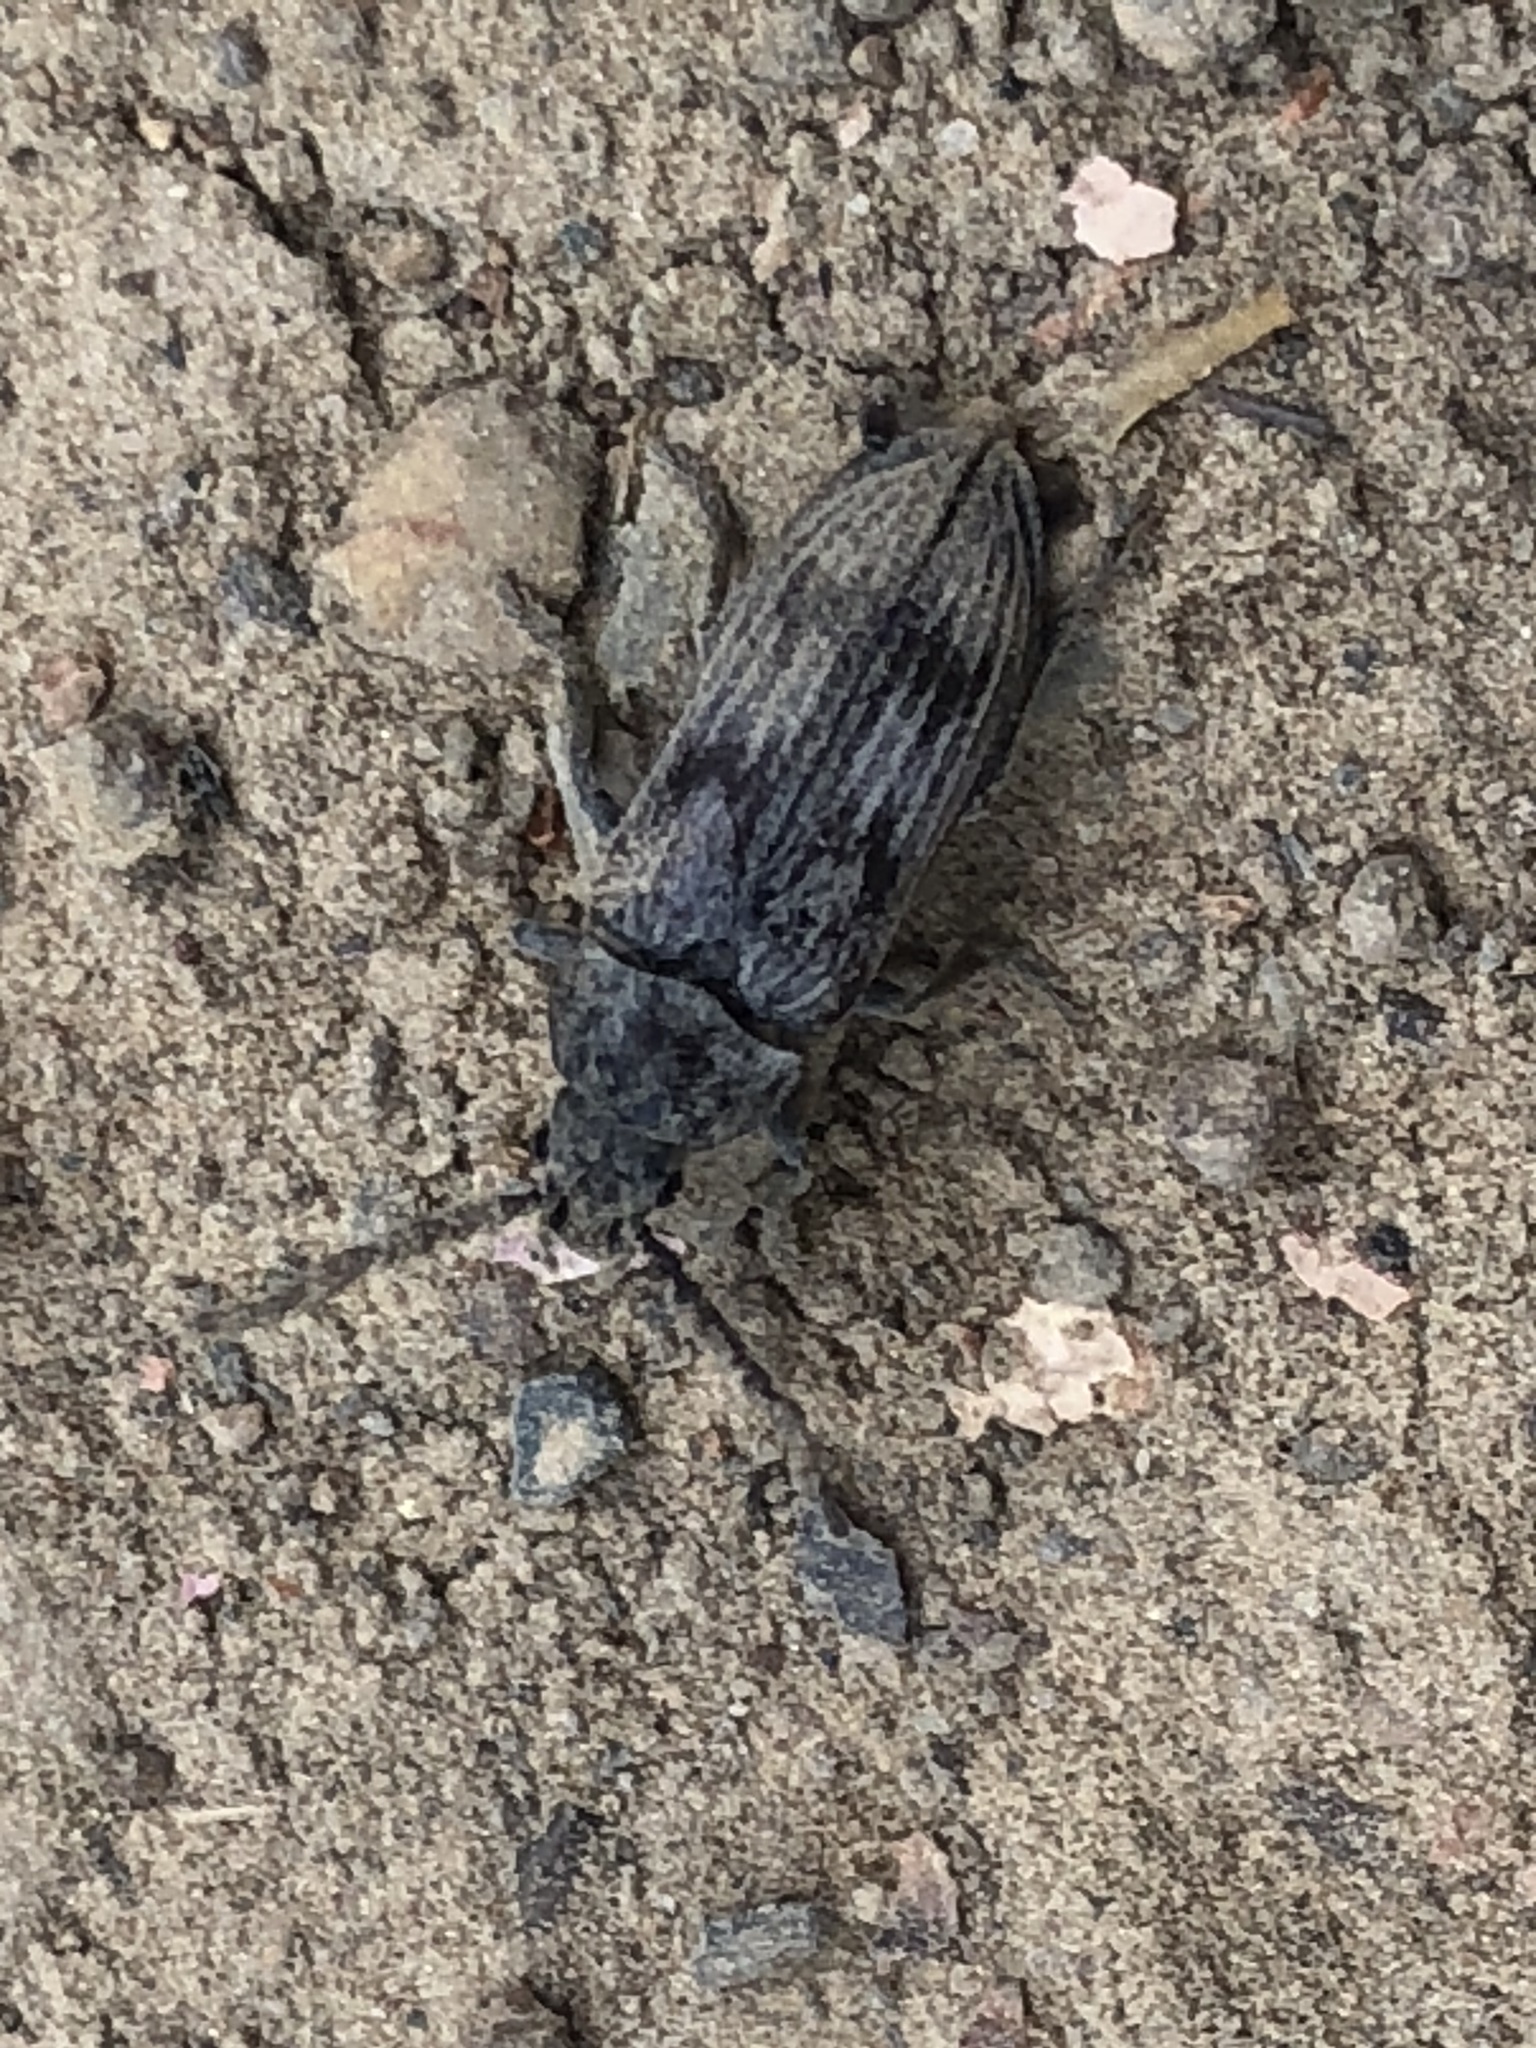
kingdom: Animalia
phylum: Arthropoda
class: Insecta
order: Coleoptera
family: Dascillidae
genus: Dascillus
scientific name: Dascillus davidsoni
